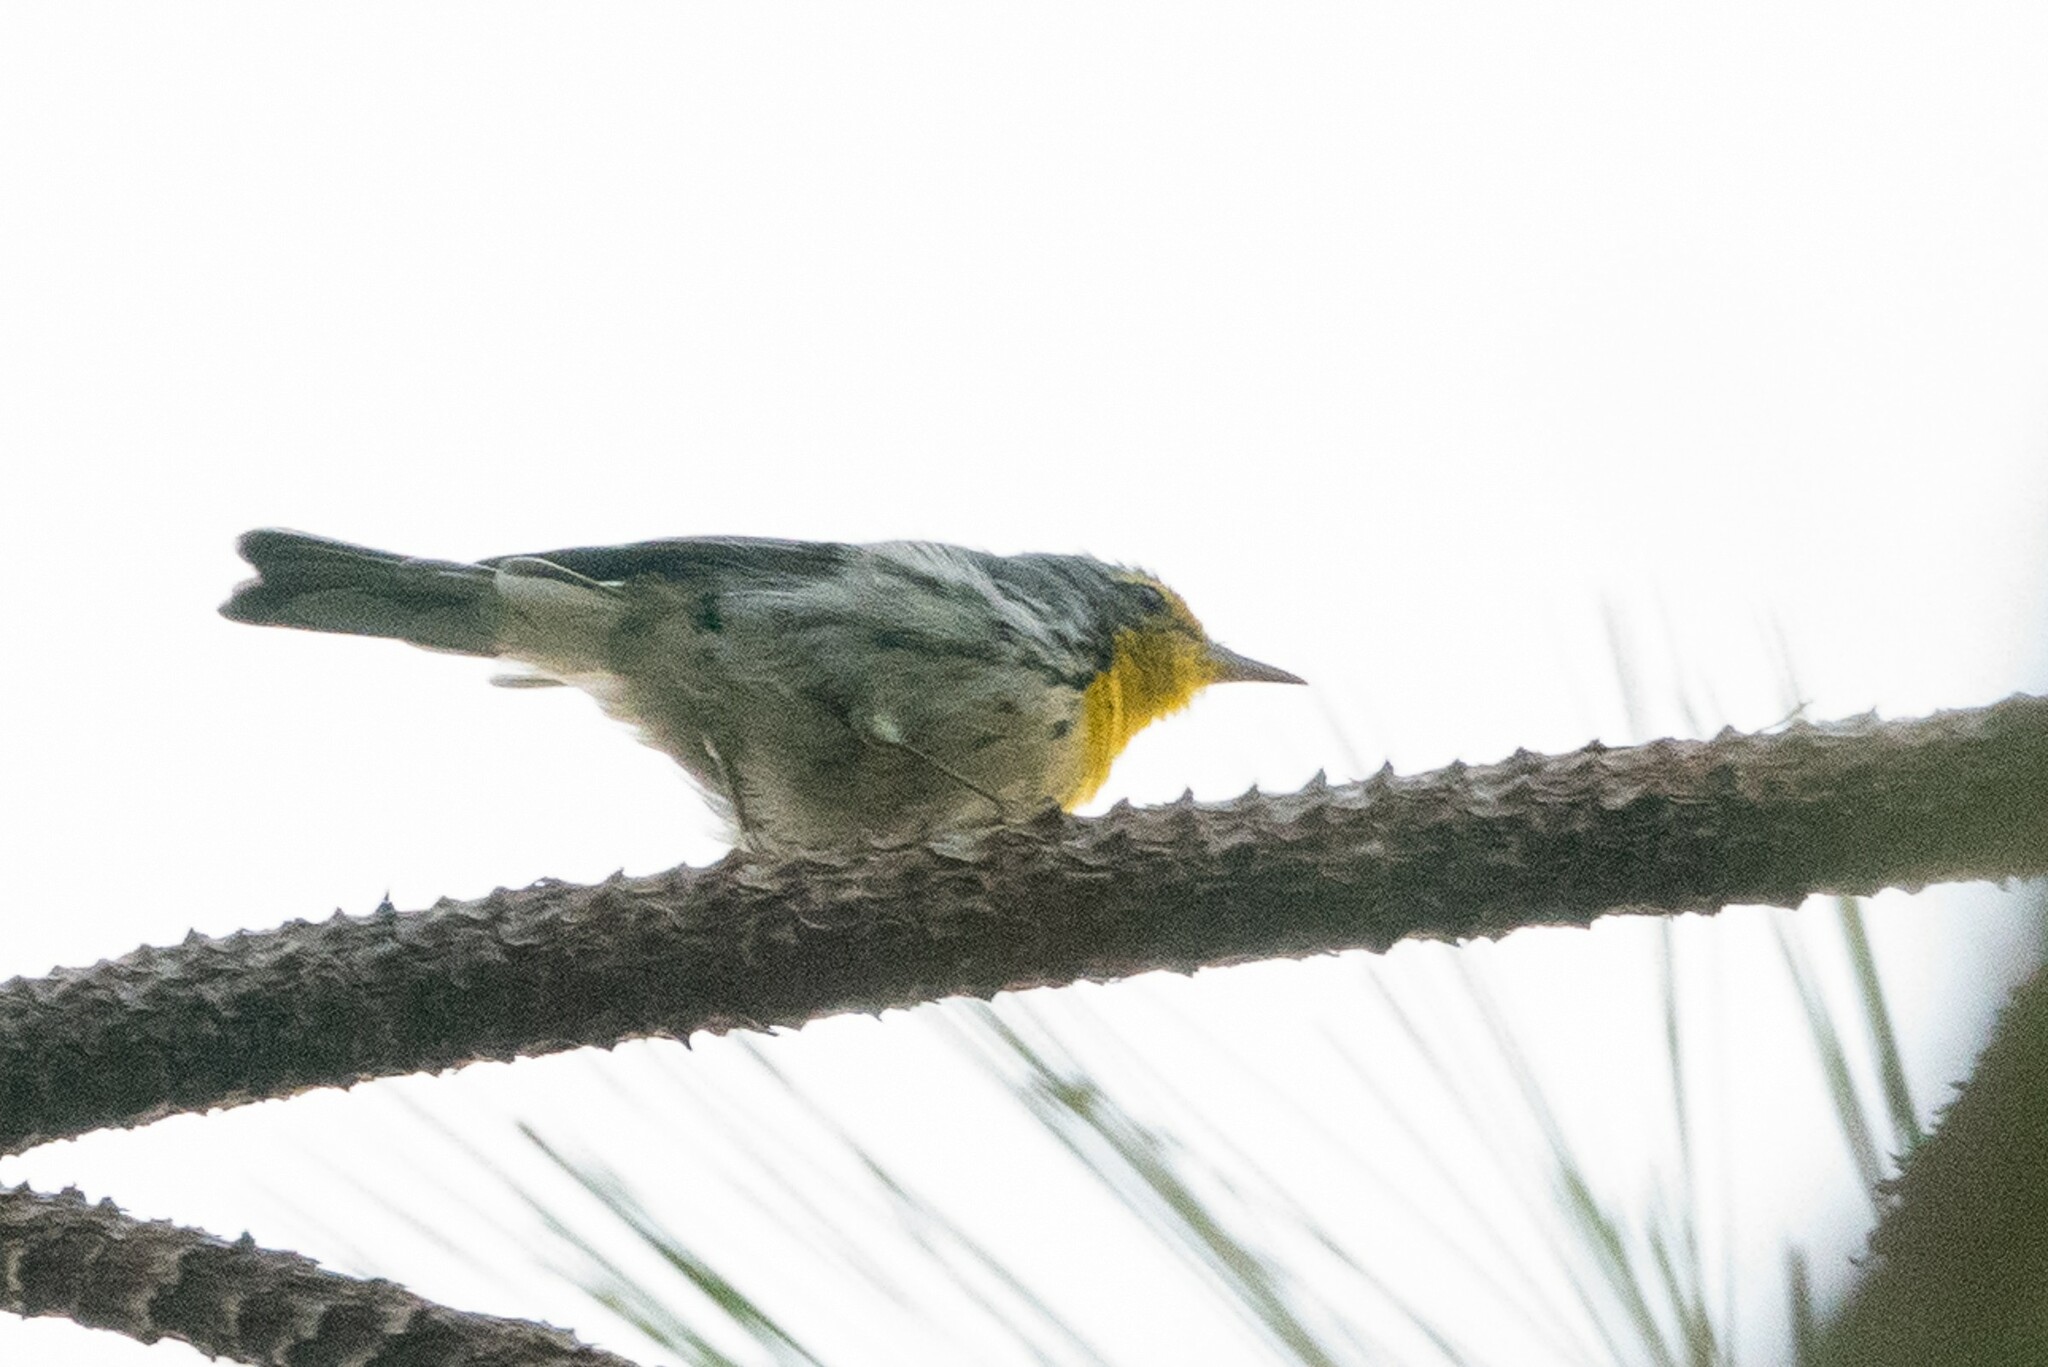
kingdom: Animalia
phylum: Chordata
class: Aves
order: Passeriformes
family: Parulidae
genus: Setophaga
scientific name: Setophaga graciae
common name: Grace's warbler
